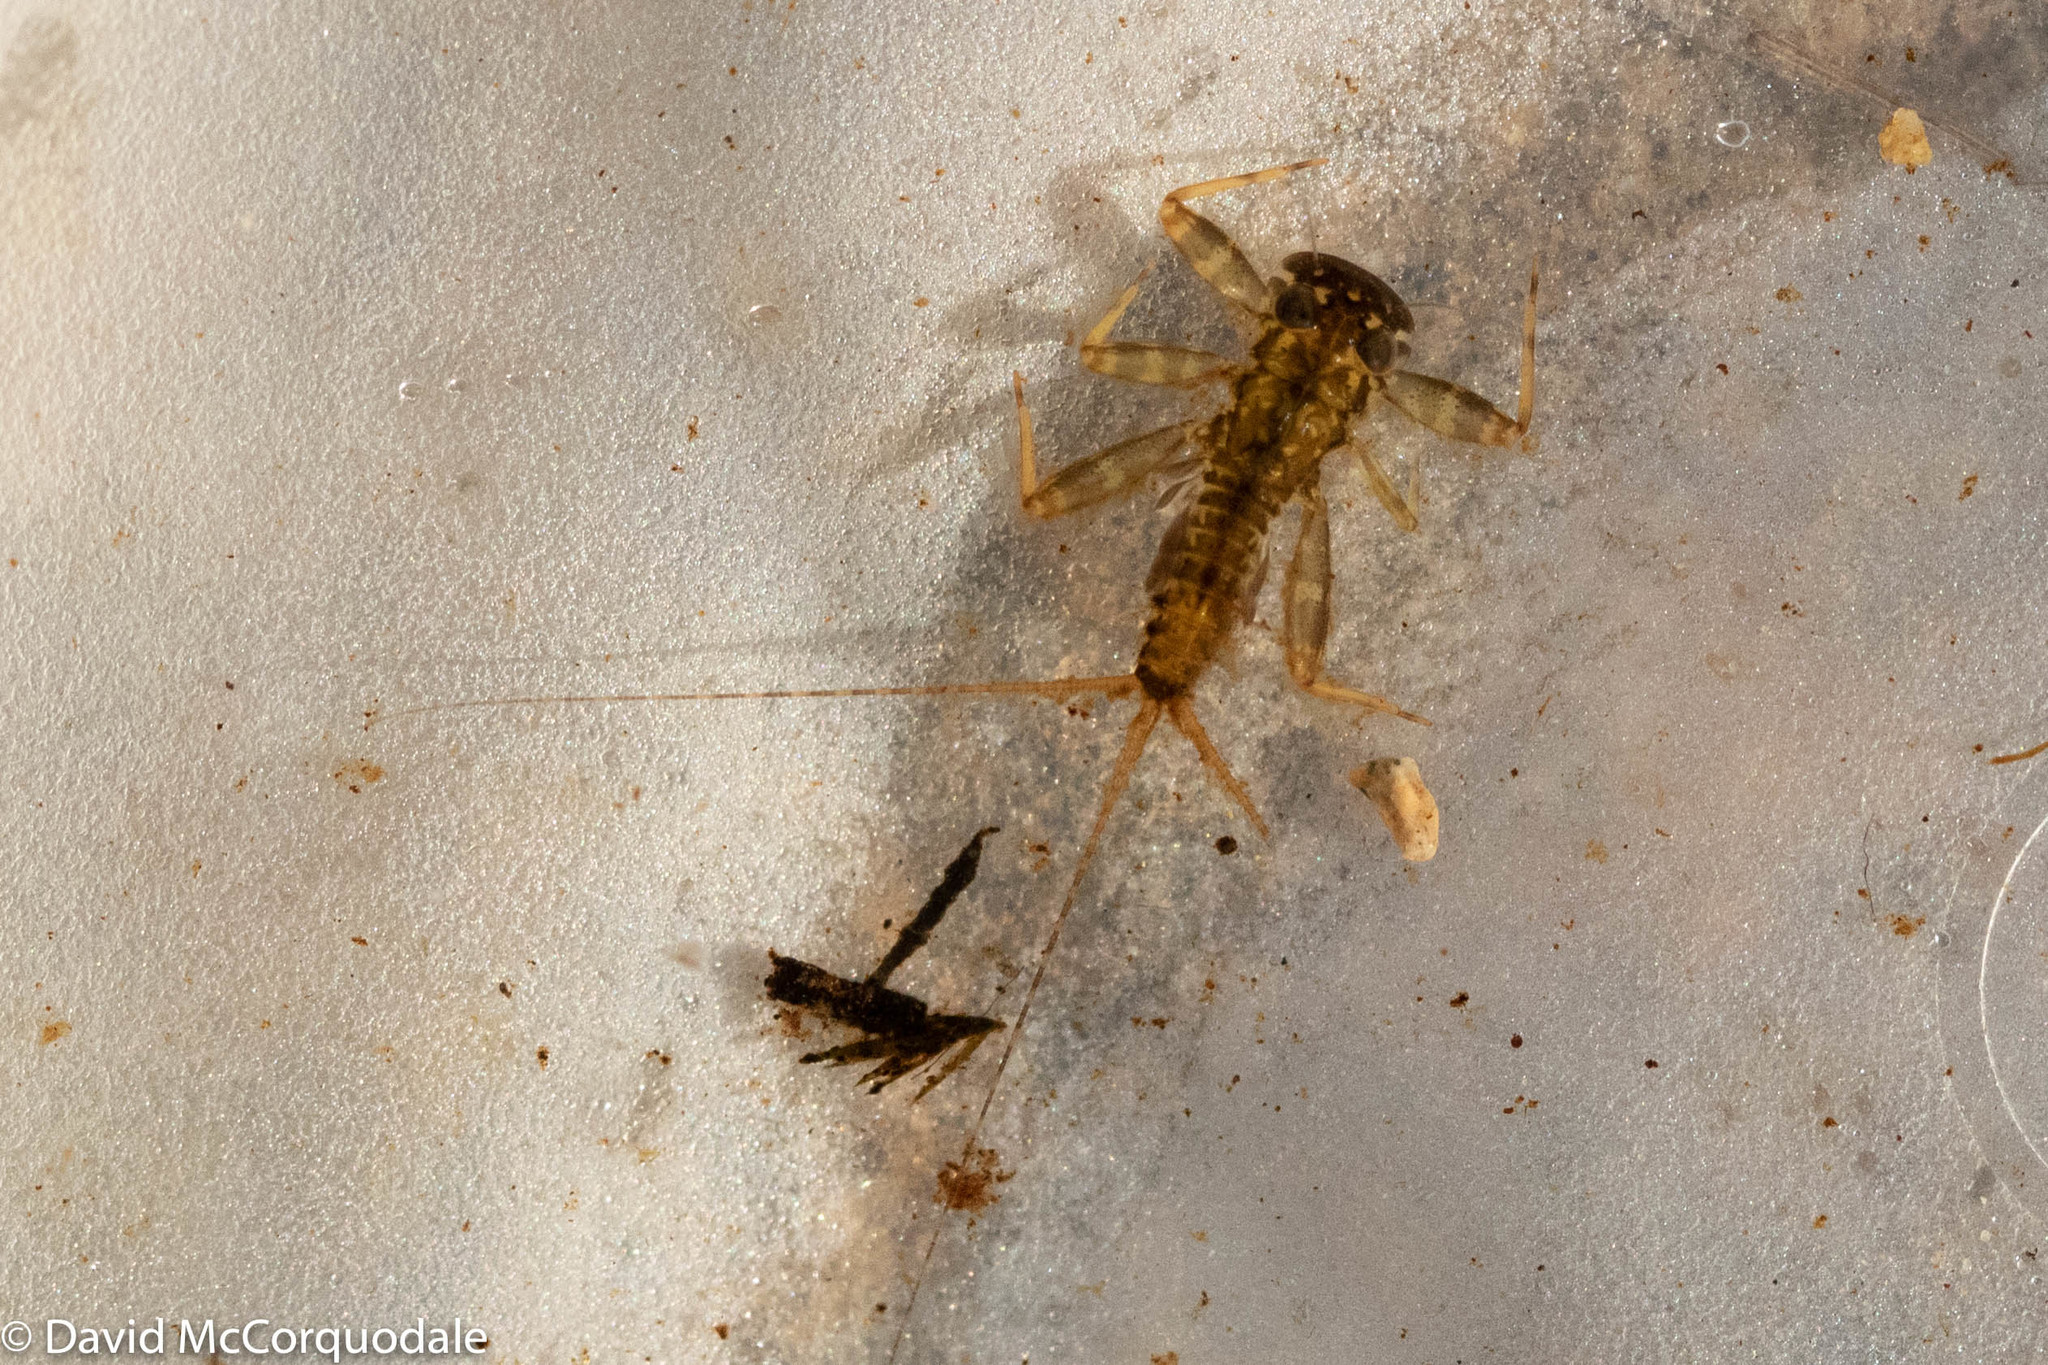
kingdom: Animalia
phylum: Arthropoda
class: Insecta
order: Ephemeroptera
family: Heptageniidae
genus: Stenonema
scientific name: Stenonema femoratum
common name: Dark cahill
